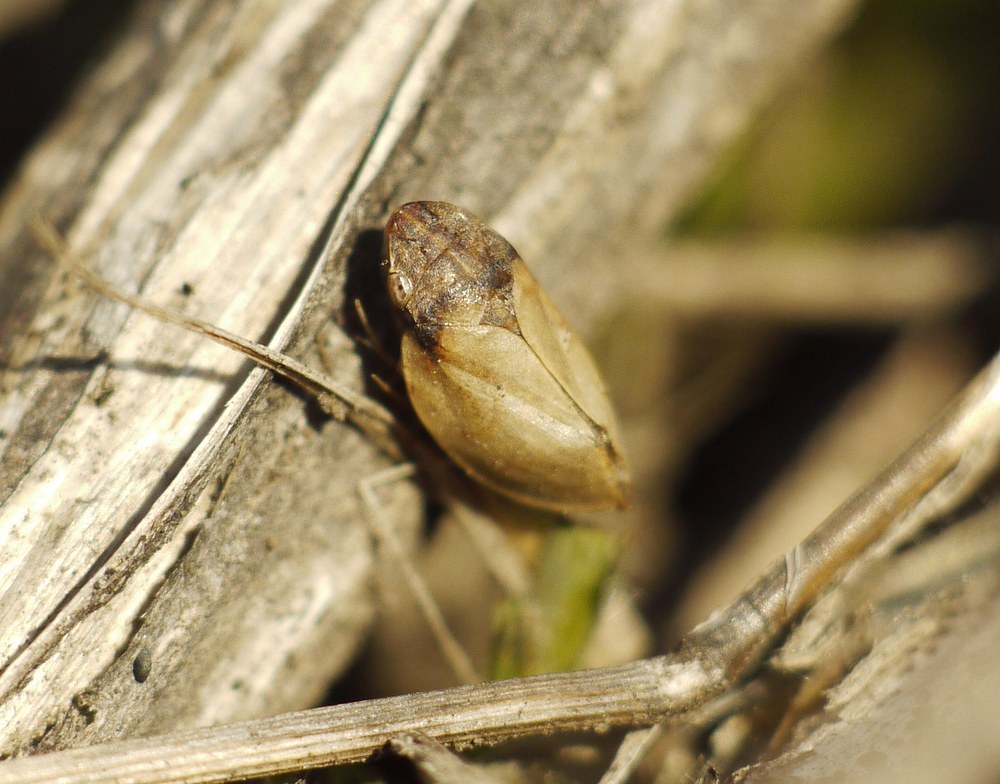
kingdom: Animalia
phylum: Arthropoda
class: Insecta
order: Hemiptera
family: Aphrophoridae
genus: Lepyronia
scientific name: Lepyronia coleoptrata
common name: Leafhopper
